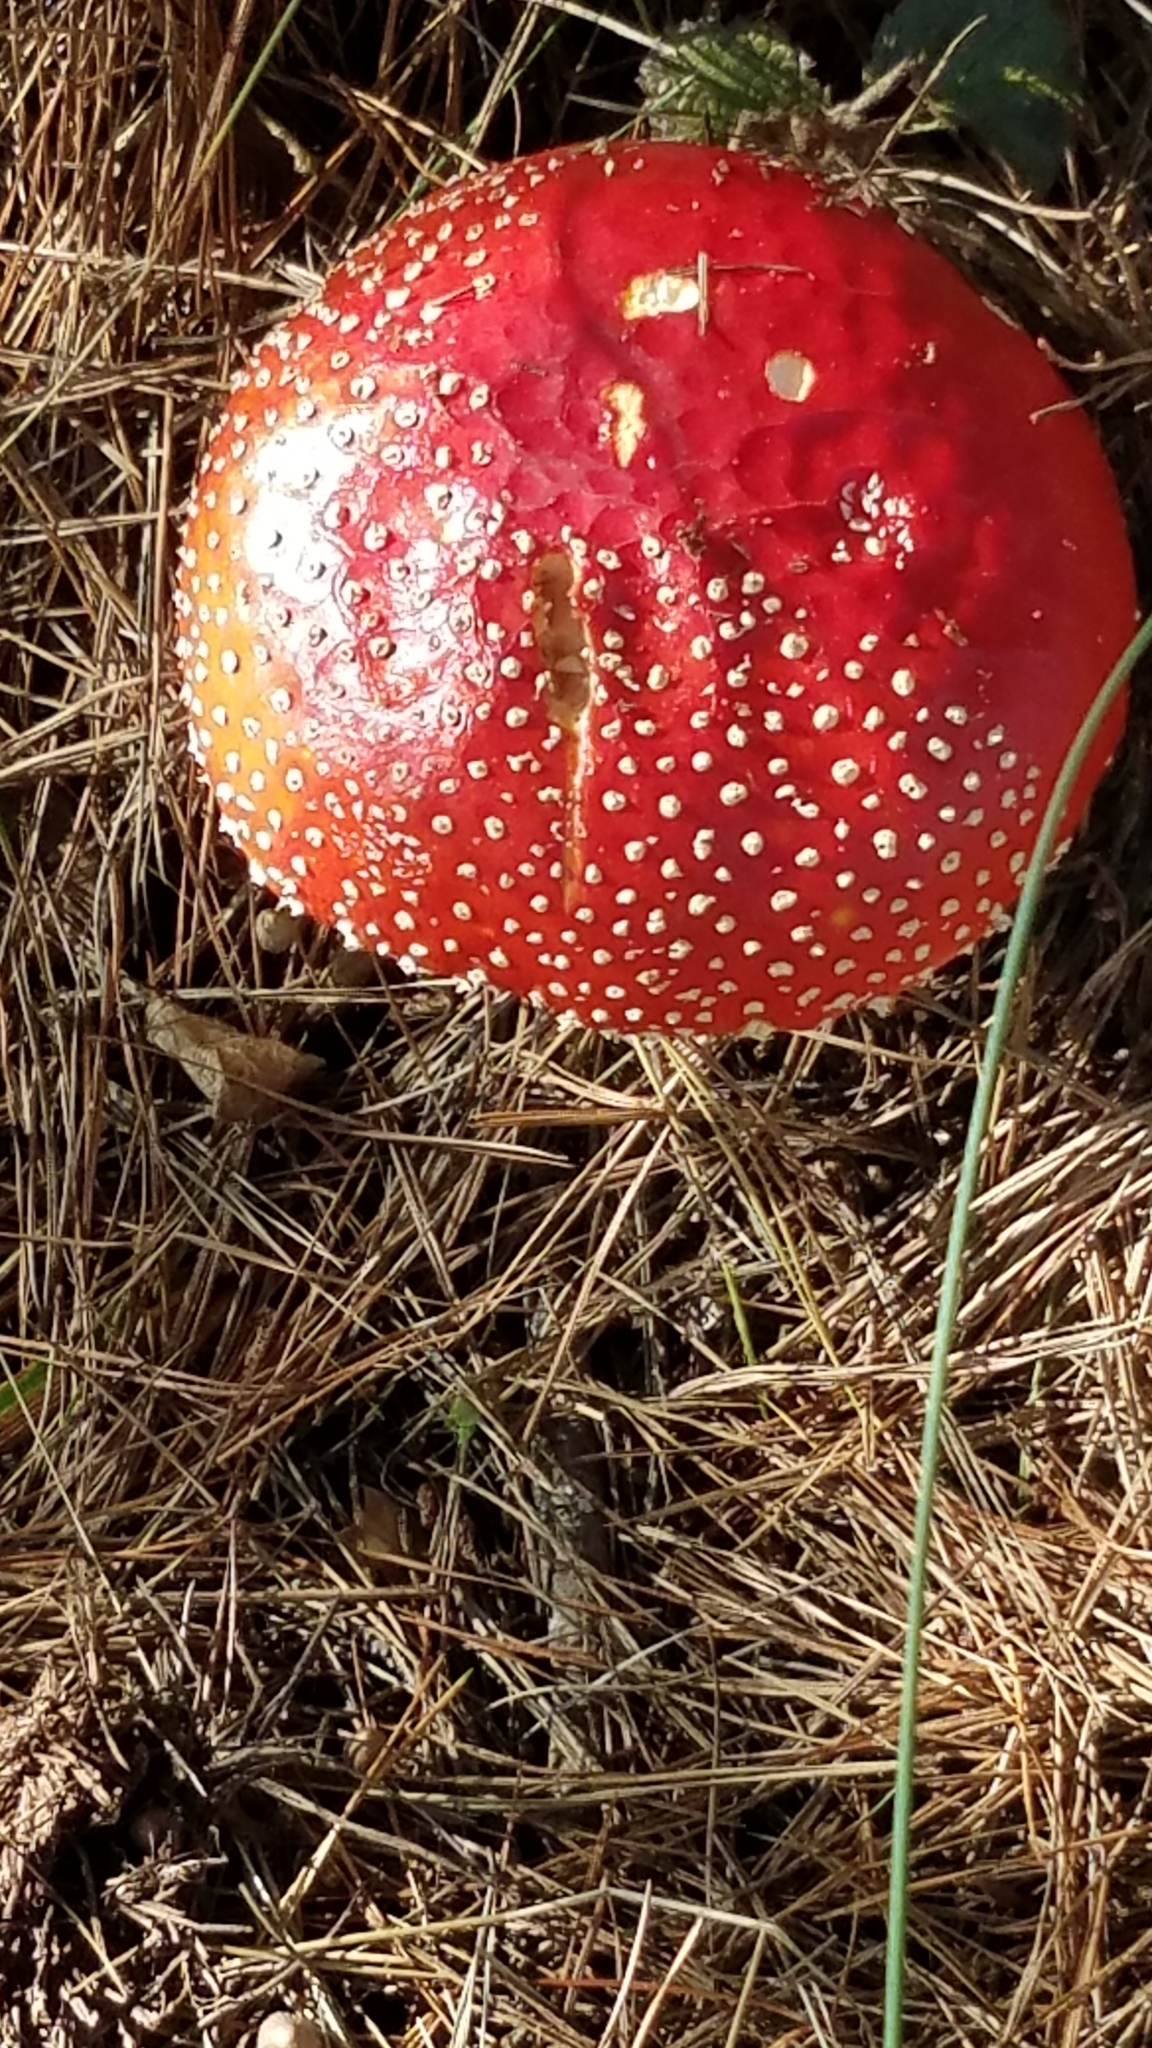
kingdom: Fungi
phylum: Basidiomycota
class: Agaricomycetes
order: Agaricales
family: Amanitaceae
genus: Amanita
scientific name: Amanita muscaria
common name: Fly agaric
